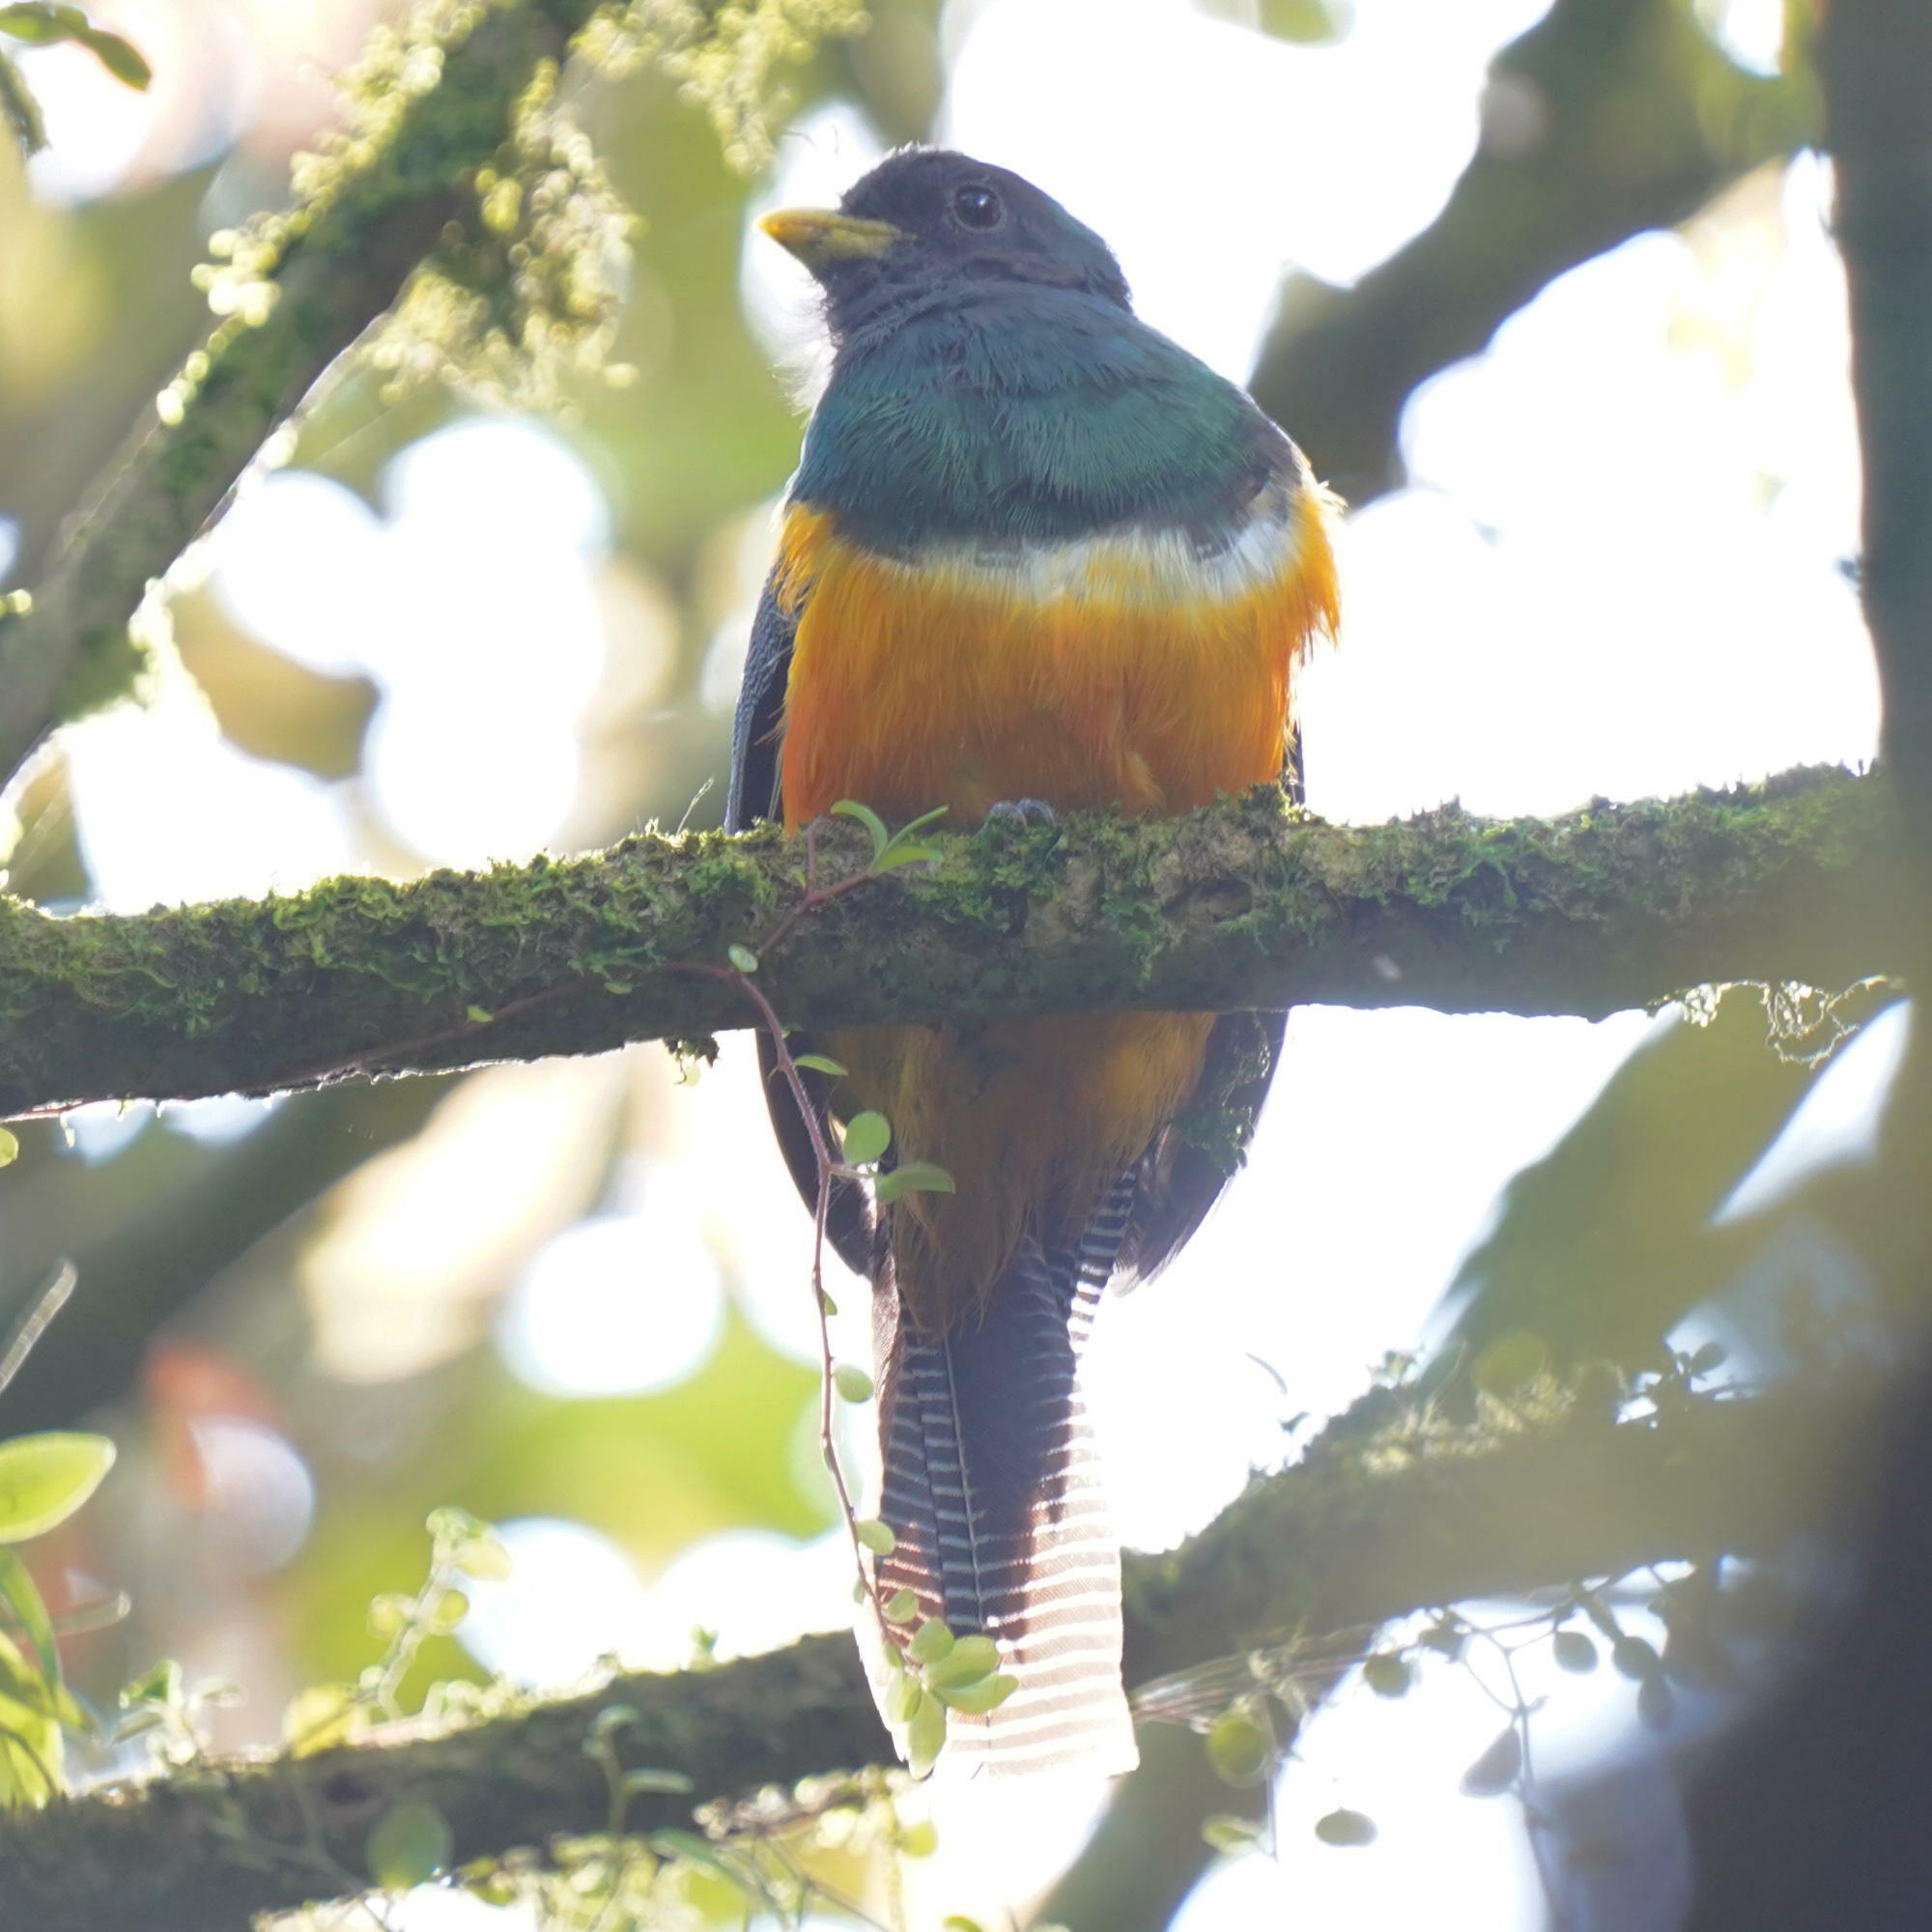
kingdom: Animalia
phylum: Chordata
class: Aves
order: Trogoniformes
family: Trogonidae
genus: Trogon
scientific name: Trogon collaris
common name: Collared trogon
